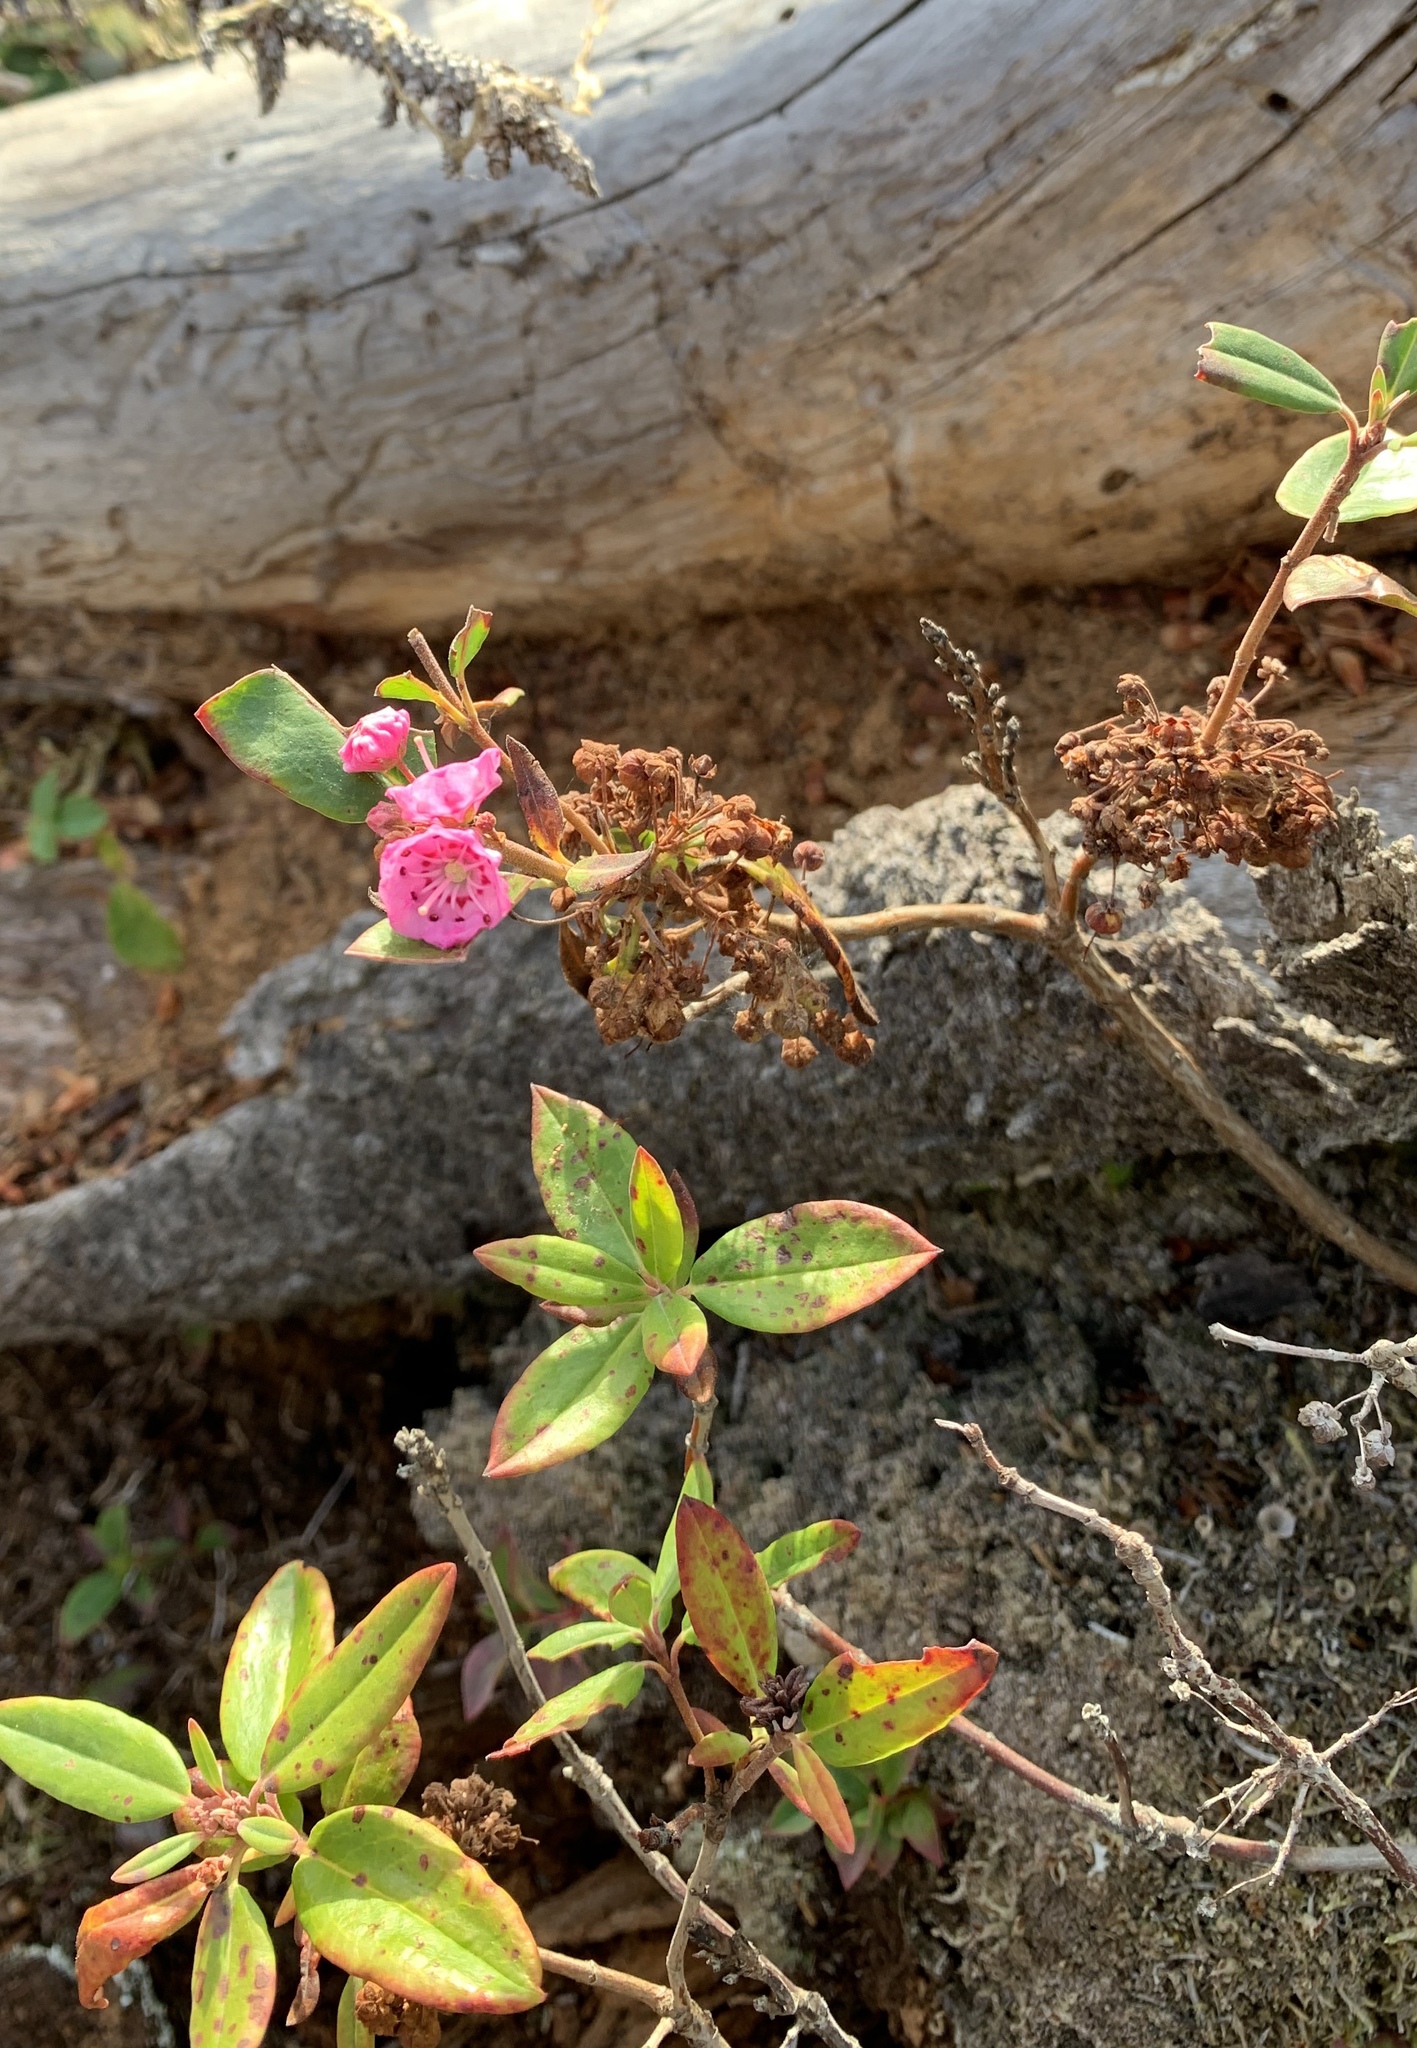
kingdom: Plantae
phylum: Tracheophyta
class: Magnoliopsida
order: Ericales
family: Ericaceae
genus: Kalmia
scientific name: Kalmia angustifolia
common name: Sheep-laurel
